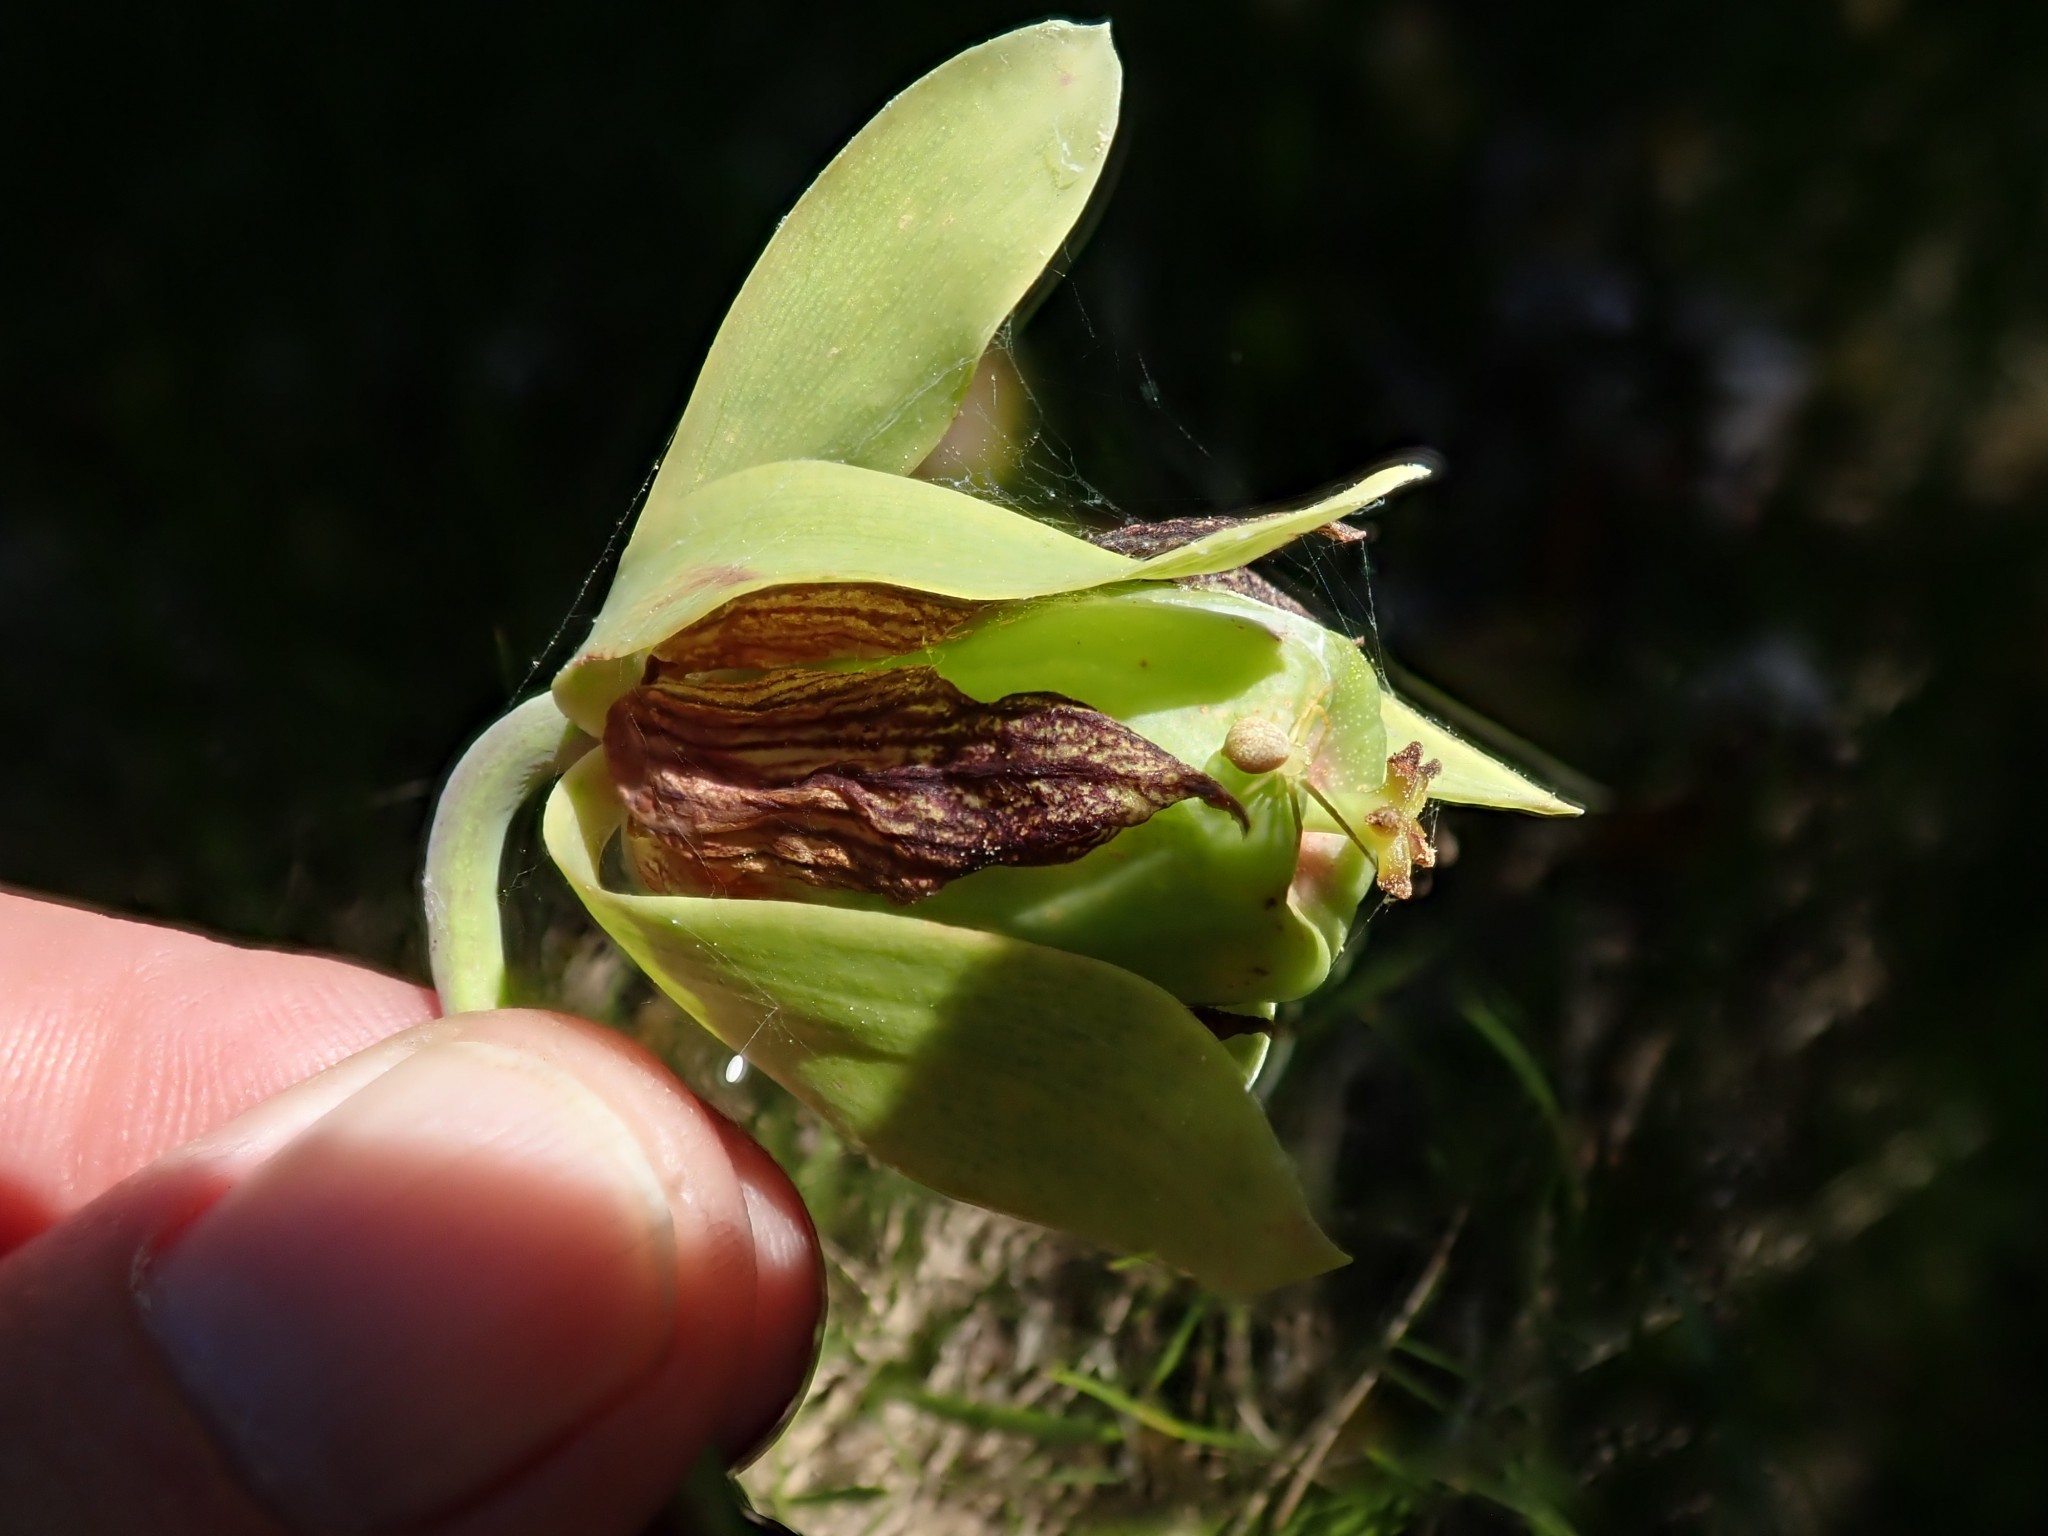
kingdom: Plantae
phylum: Tracheophyta
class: Magnoliopsida
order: Ericales
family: Sarraceniaceae
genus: Darlingtonia
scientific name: Darlingtonia californica
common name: California pitcher plant
